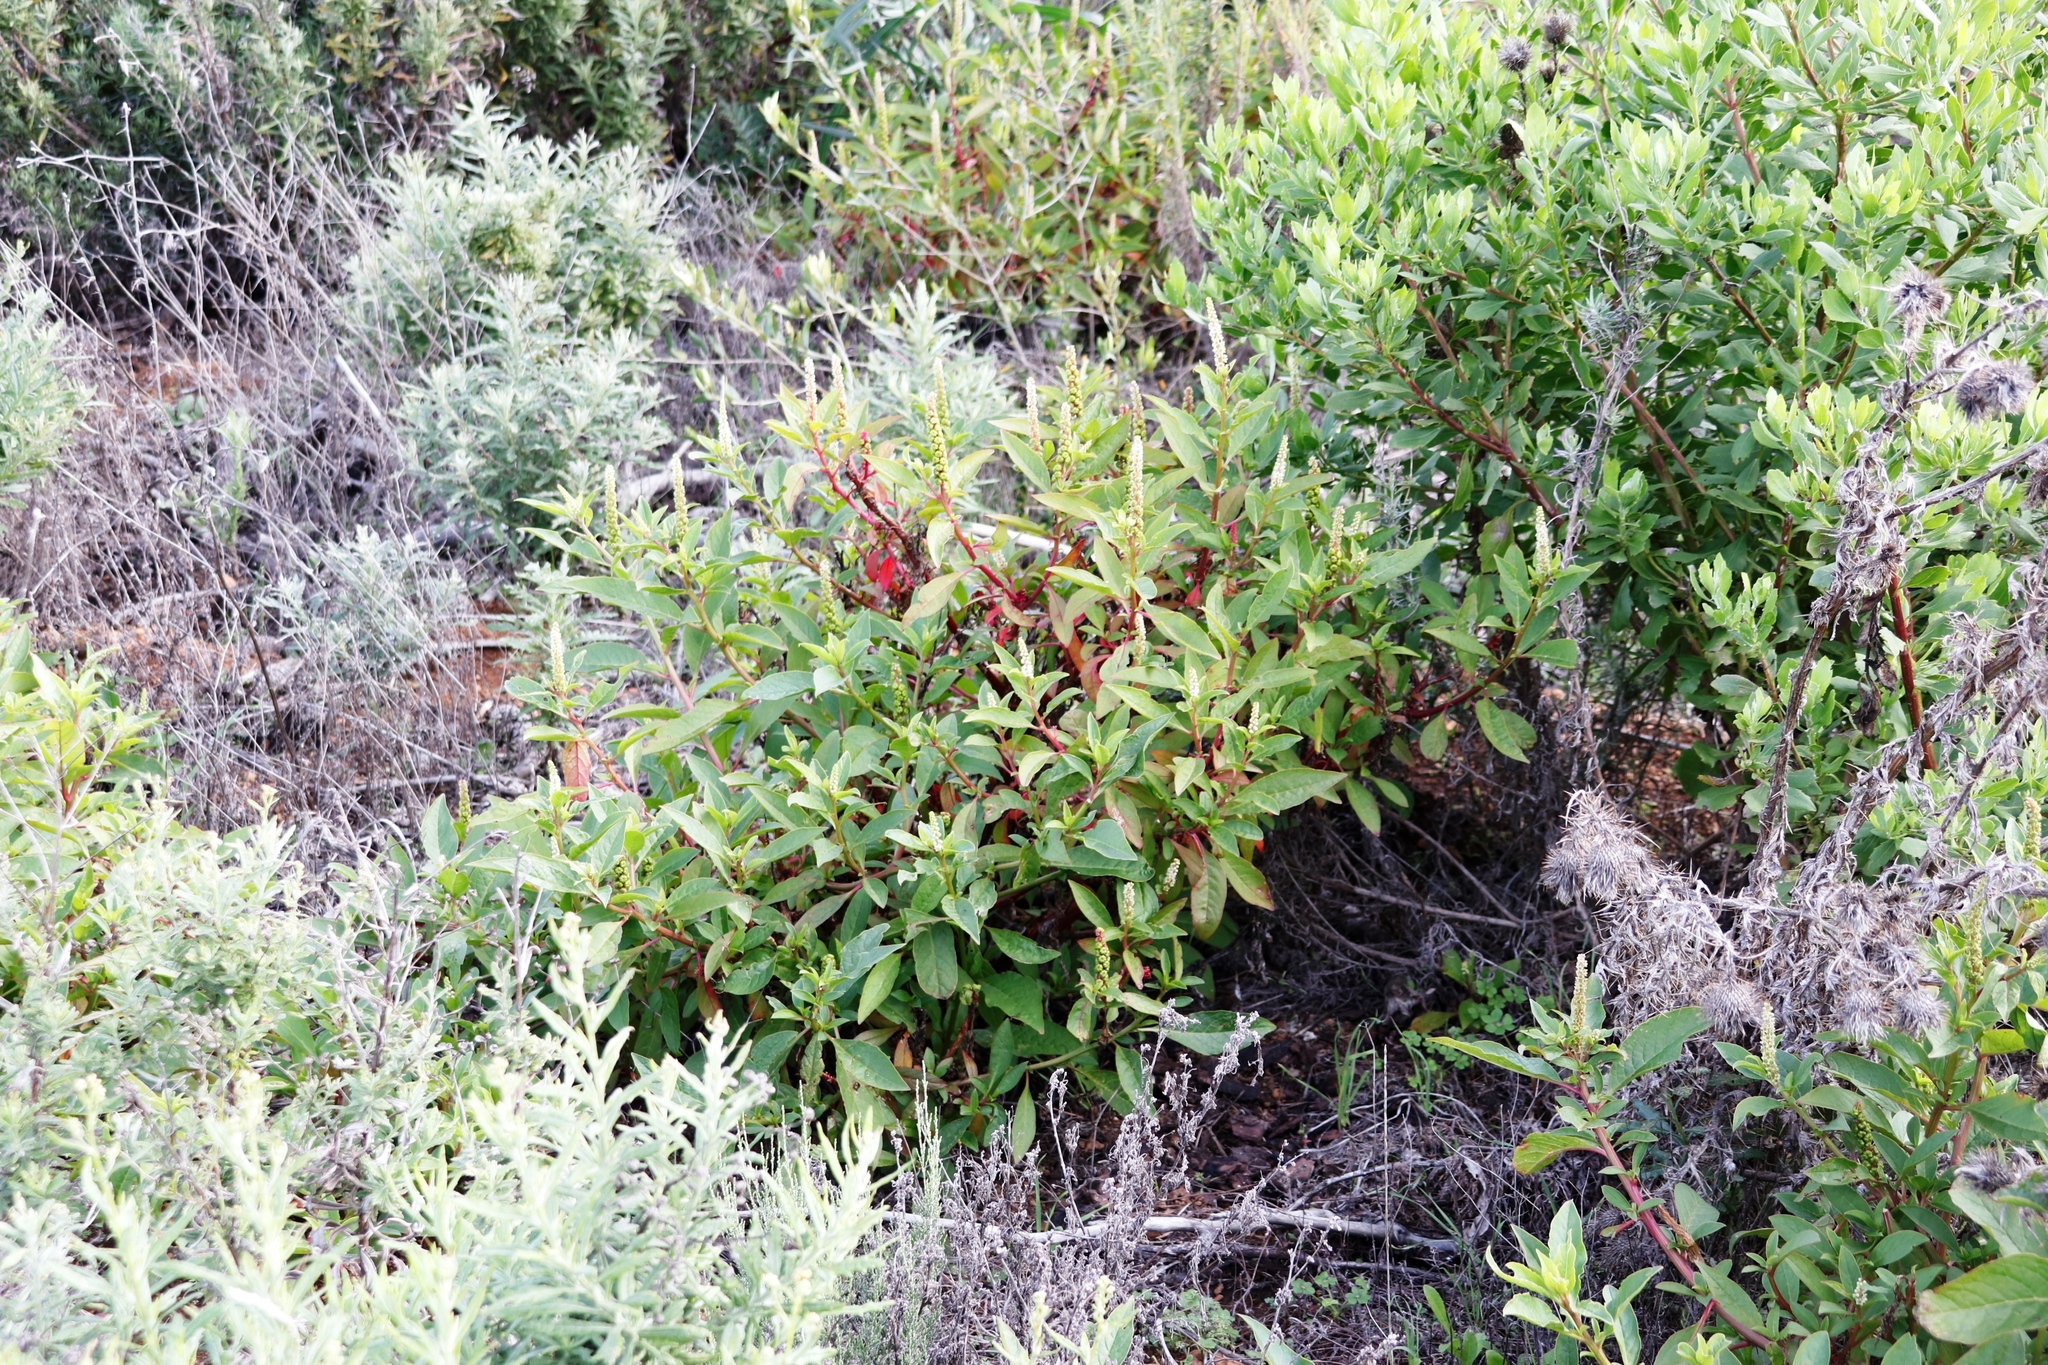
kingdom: Plantae
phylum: Tracheophyta
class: Magnoliopsida
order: Caryophyllales
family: Phytolaccaceae
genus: Phytolacca
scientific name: Phytolacca icosandra
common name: Button pokeweed
